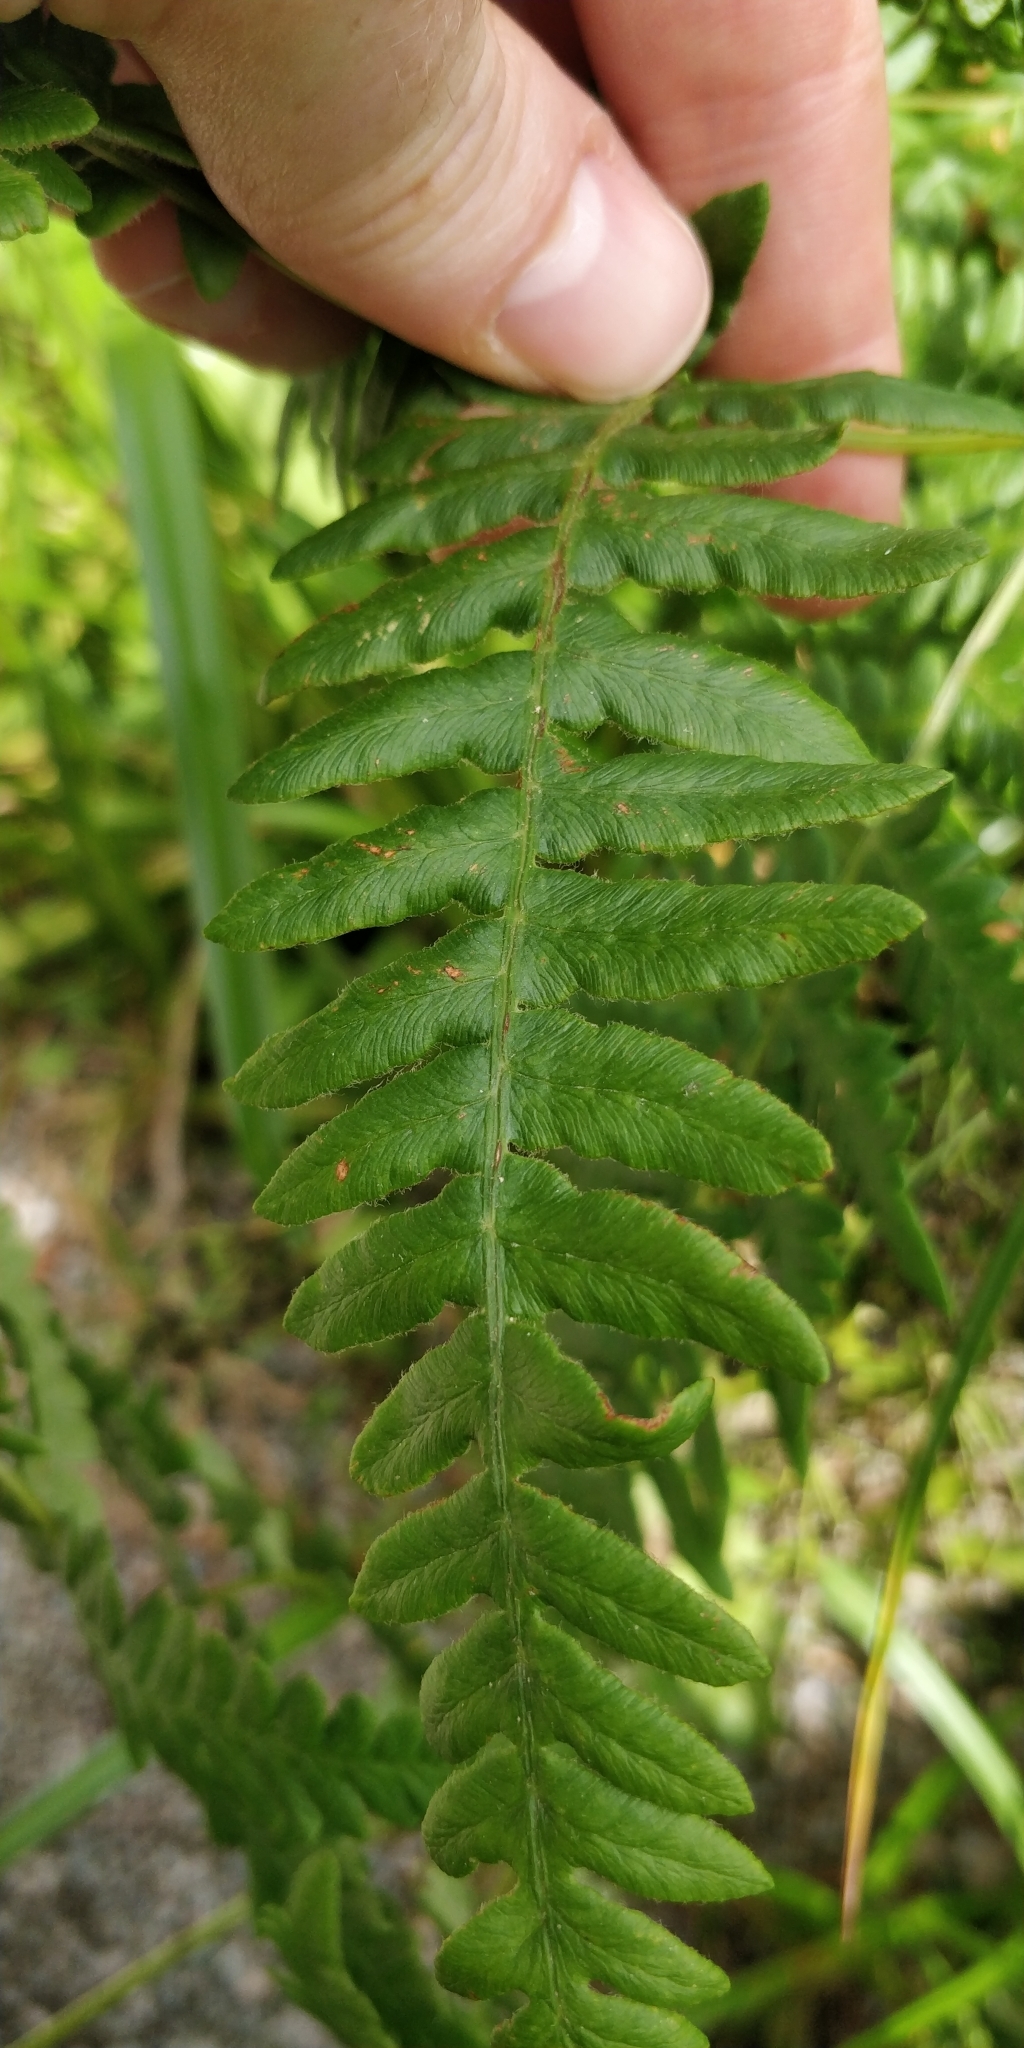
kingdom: Plantae
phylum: Tracheophyta
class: Polypodiopsida
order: Polypodiales
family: Dennstaedtiaceae
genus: Pteridium
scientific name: Pteridium aquilinum
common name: Bracken
